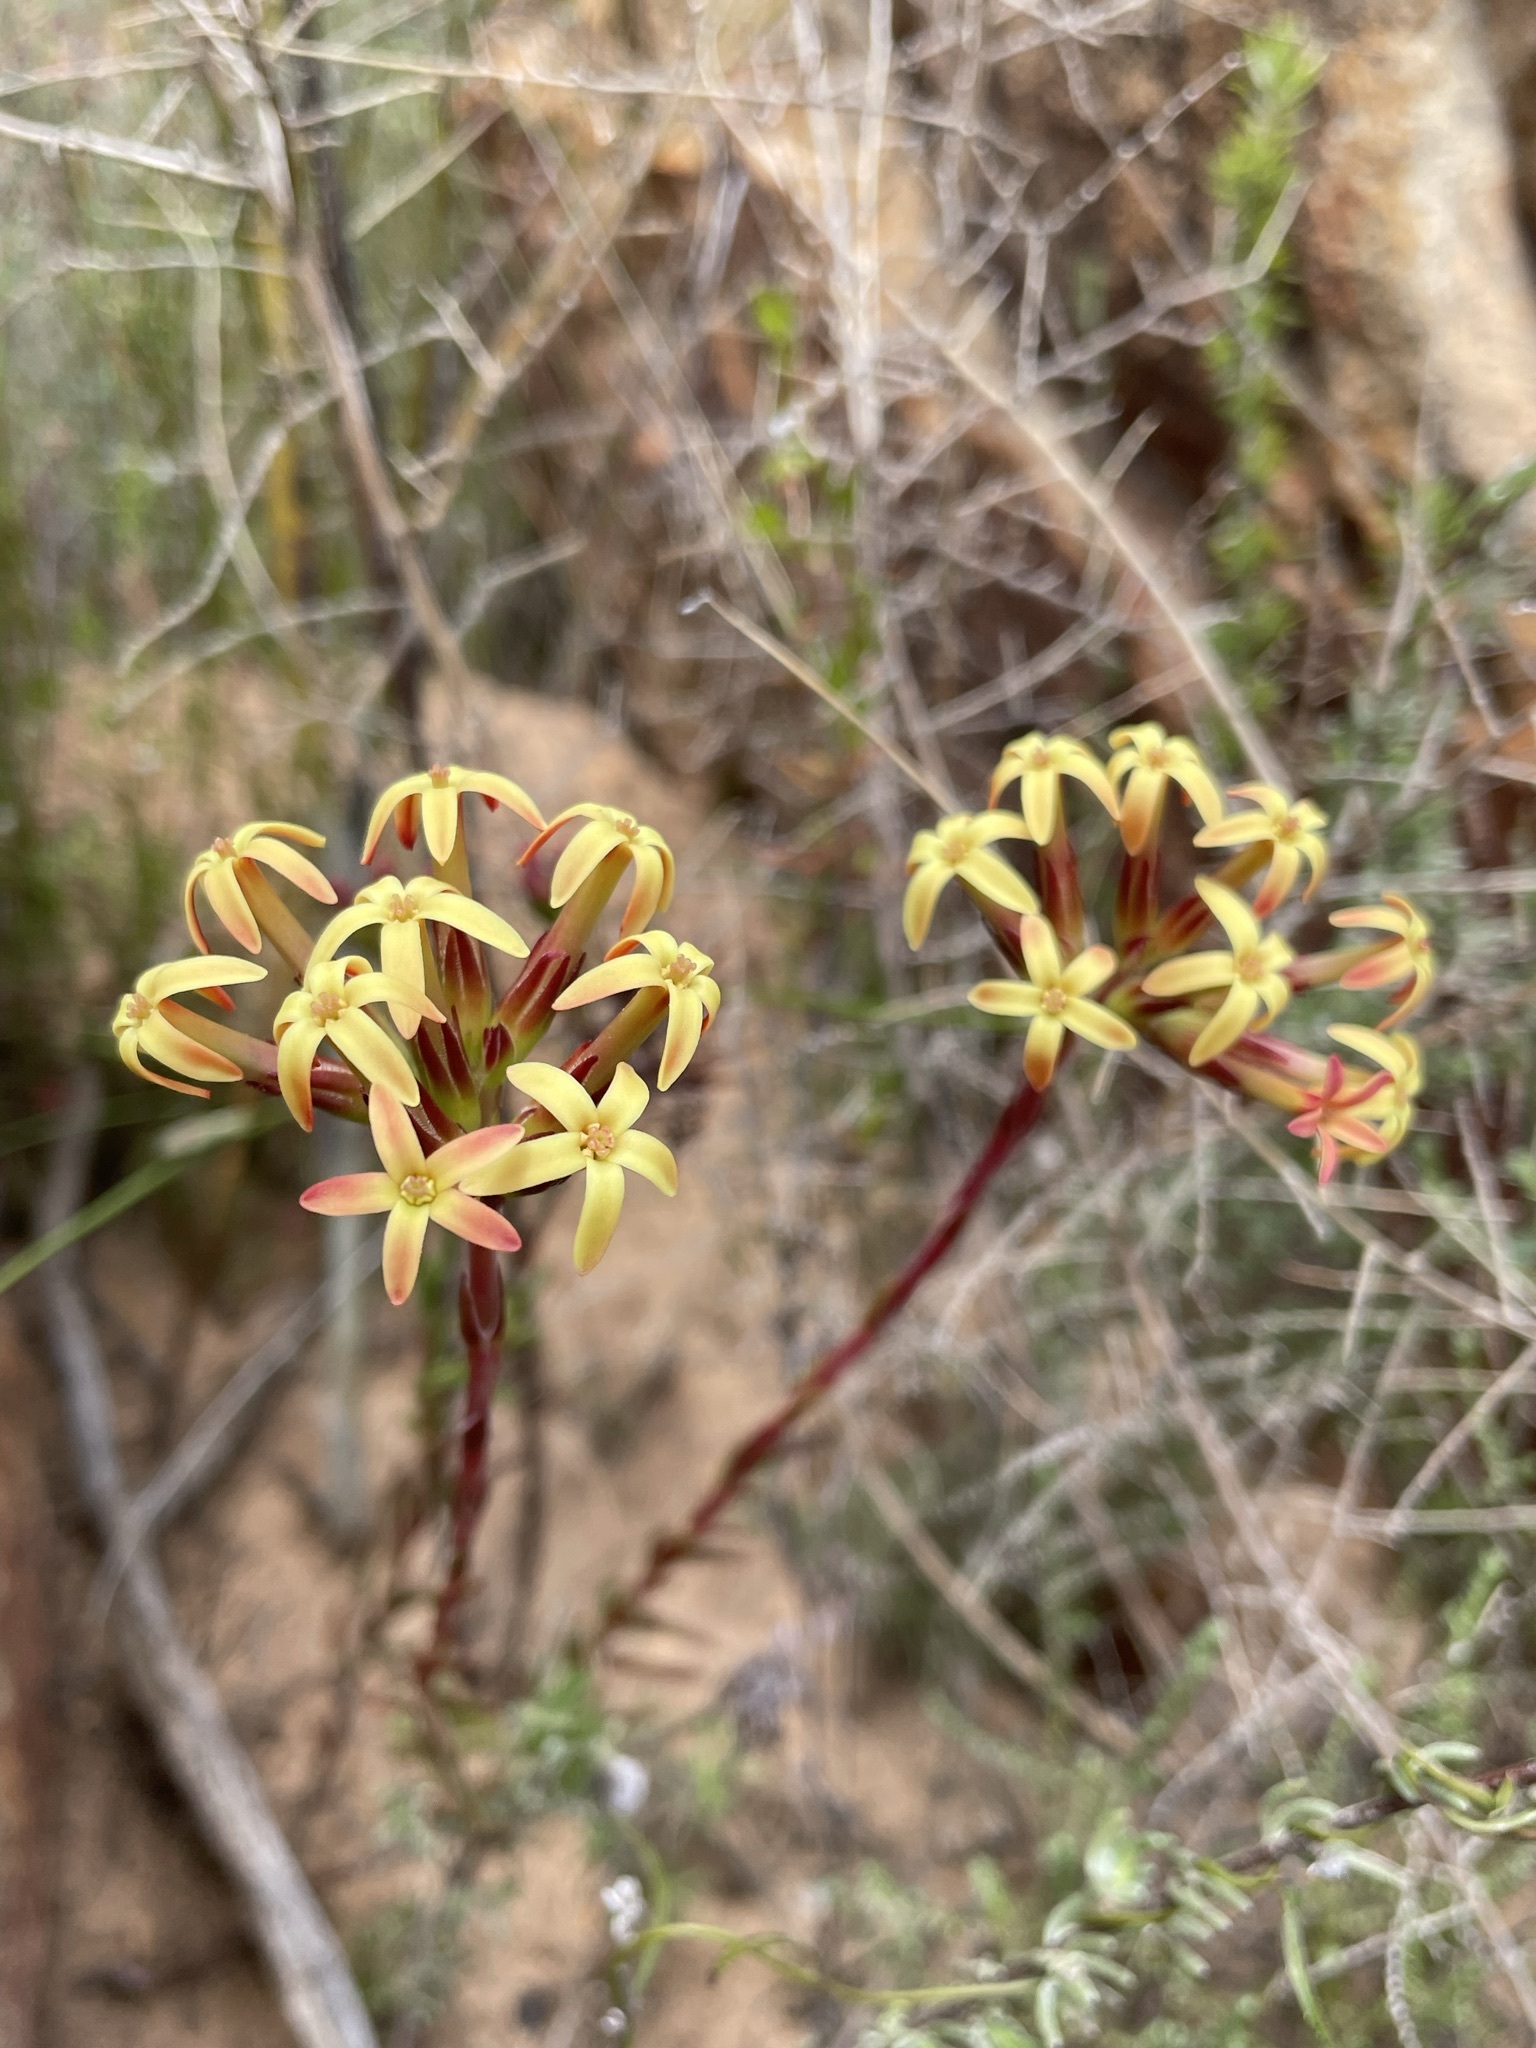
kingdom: Plantae
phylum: Tracheophyta
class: Magnoliopsida
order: Saxifragales
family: Crassulaceae
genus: Crassula
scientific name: Crassula fascicularis
